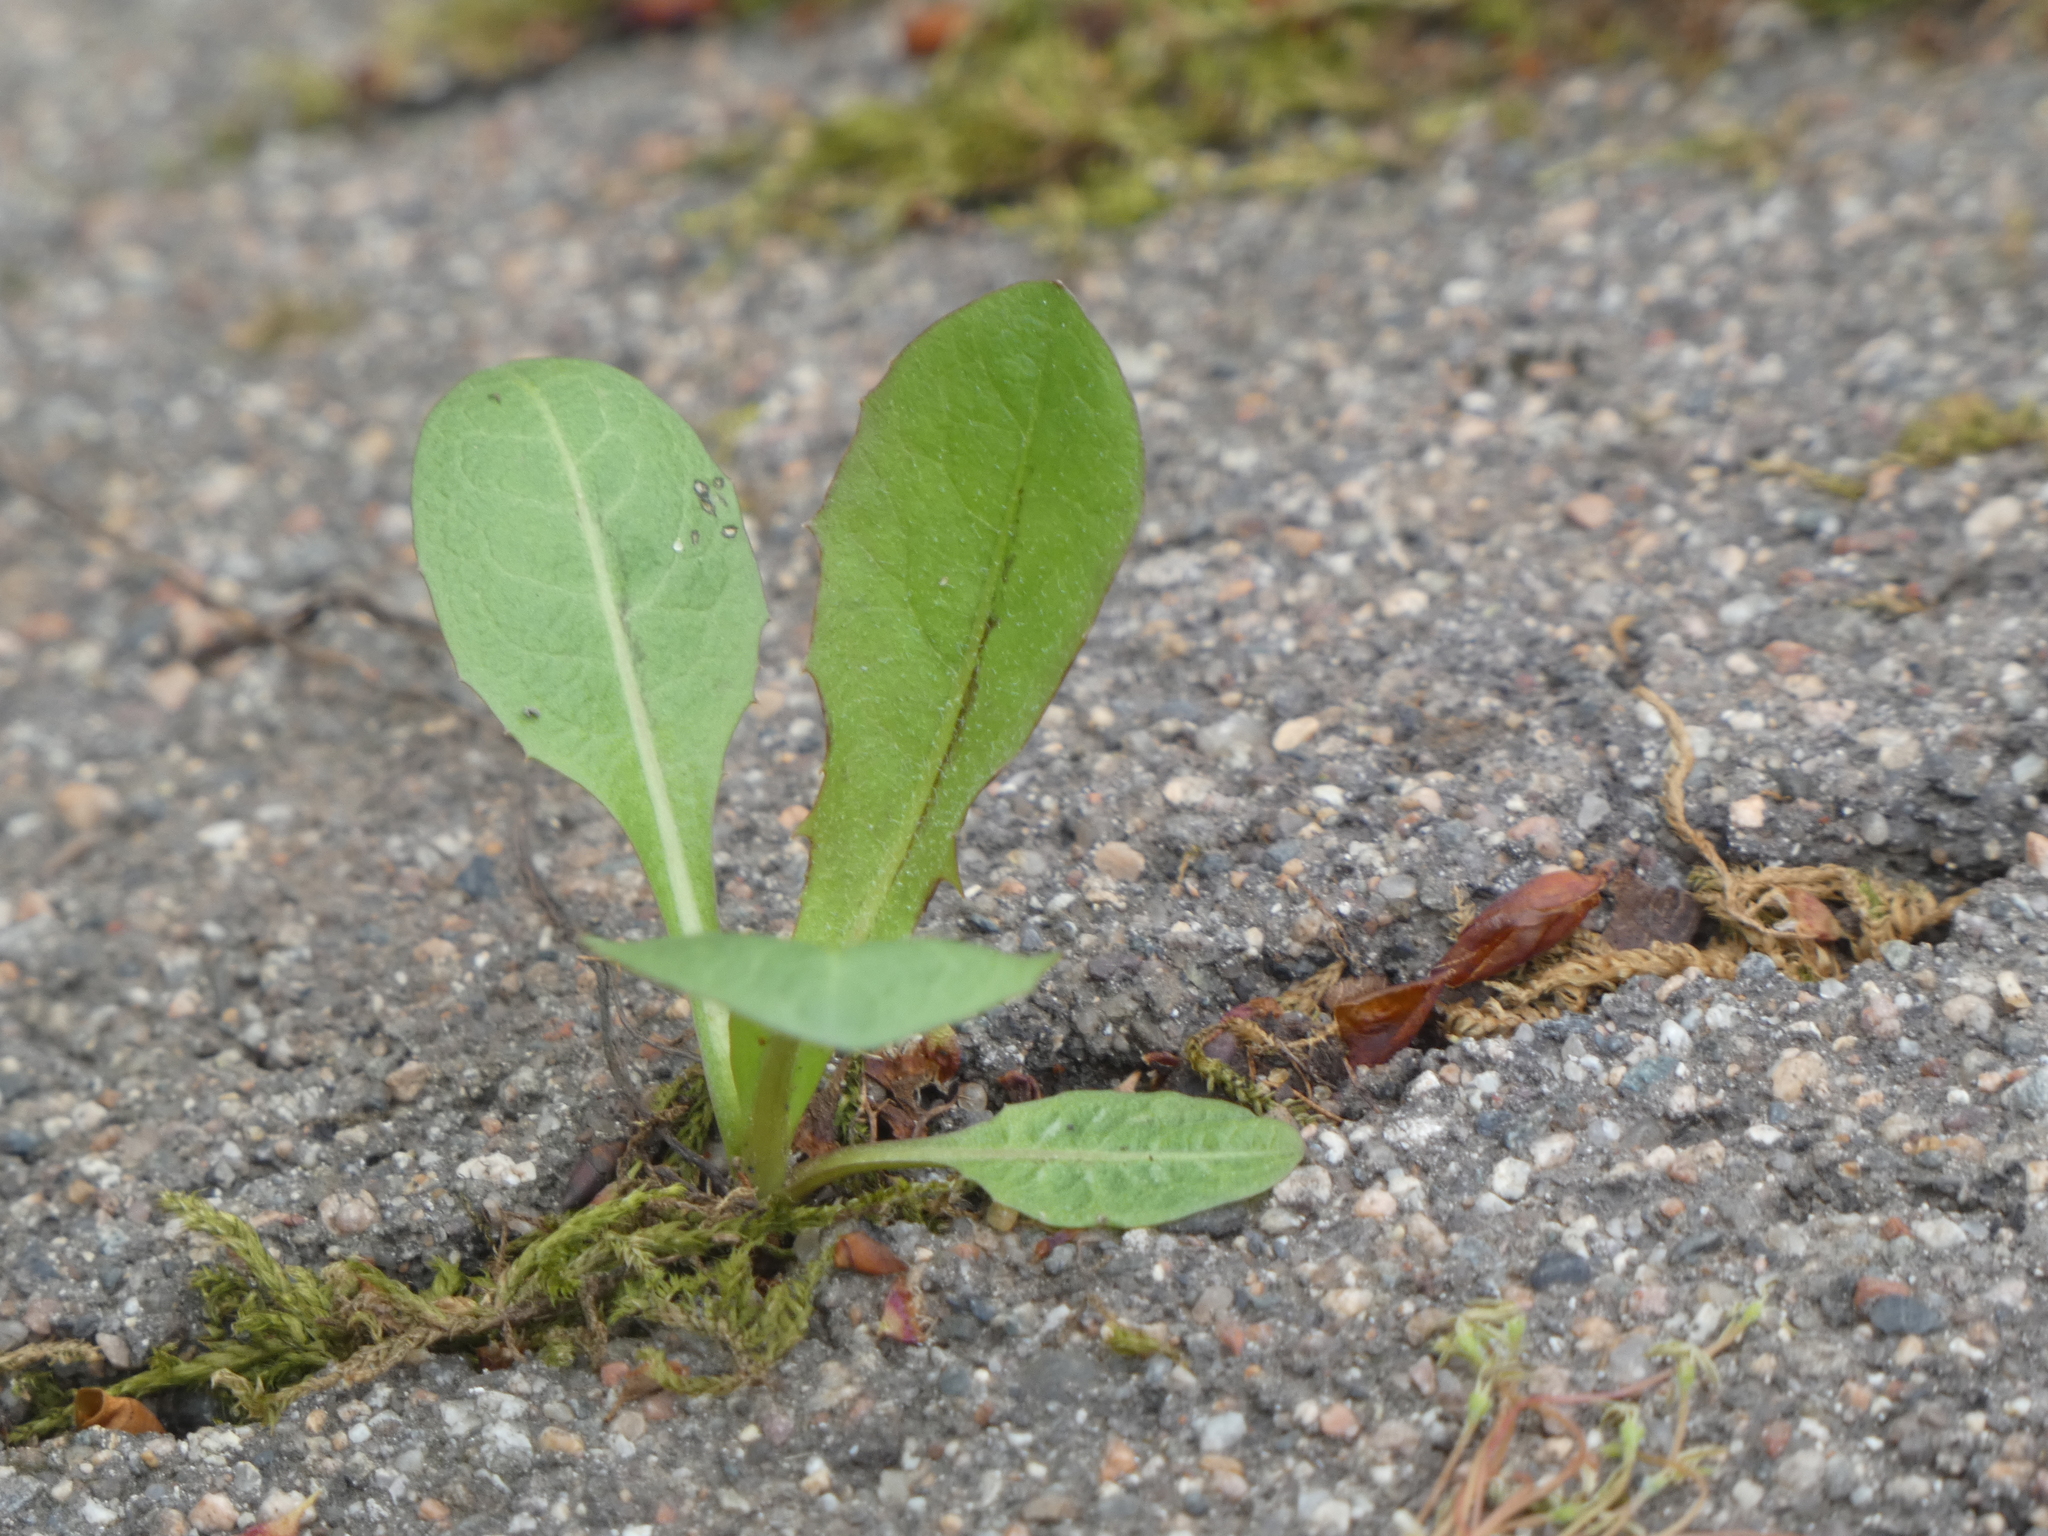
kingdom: Plantae
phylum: Tracheophyta
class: Magnoliopsida
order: Asterales
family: Asteraceae
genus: Taraxacum
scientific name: Taraxacum officinale
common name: Common dandelion
